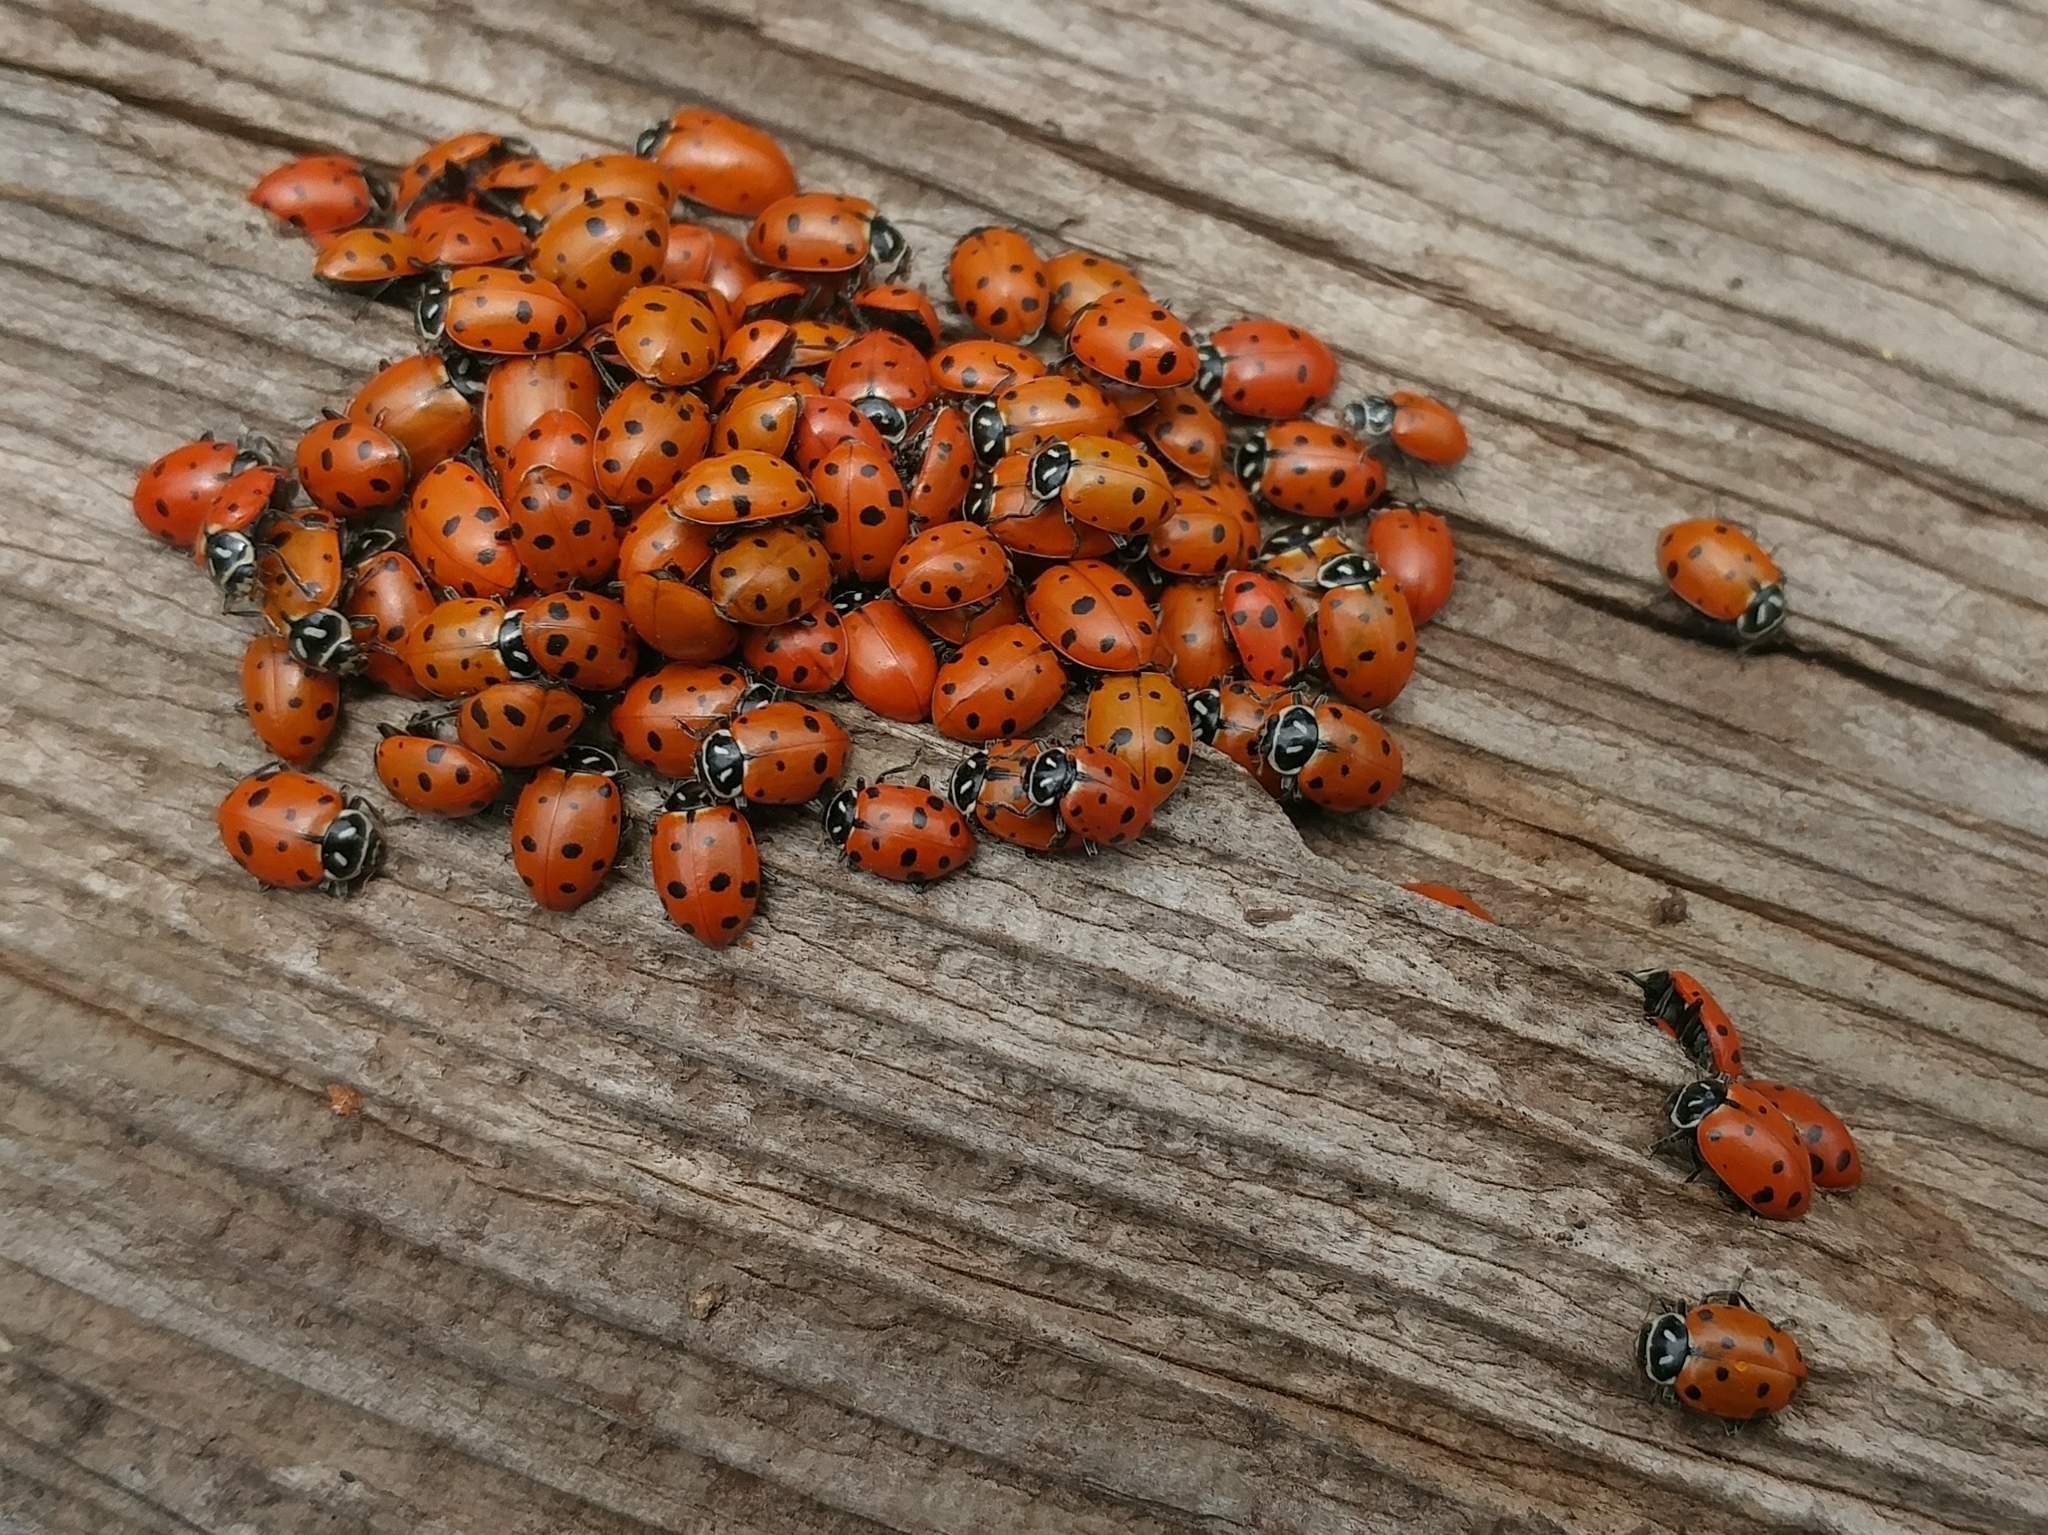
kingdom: Animalia
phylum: Arthropoda
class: Insecta
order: Coleoptera
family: Coccinellidae
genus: Hippodamia
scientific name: Hippodamia convergens
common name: Convergent lady beetle
